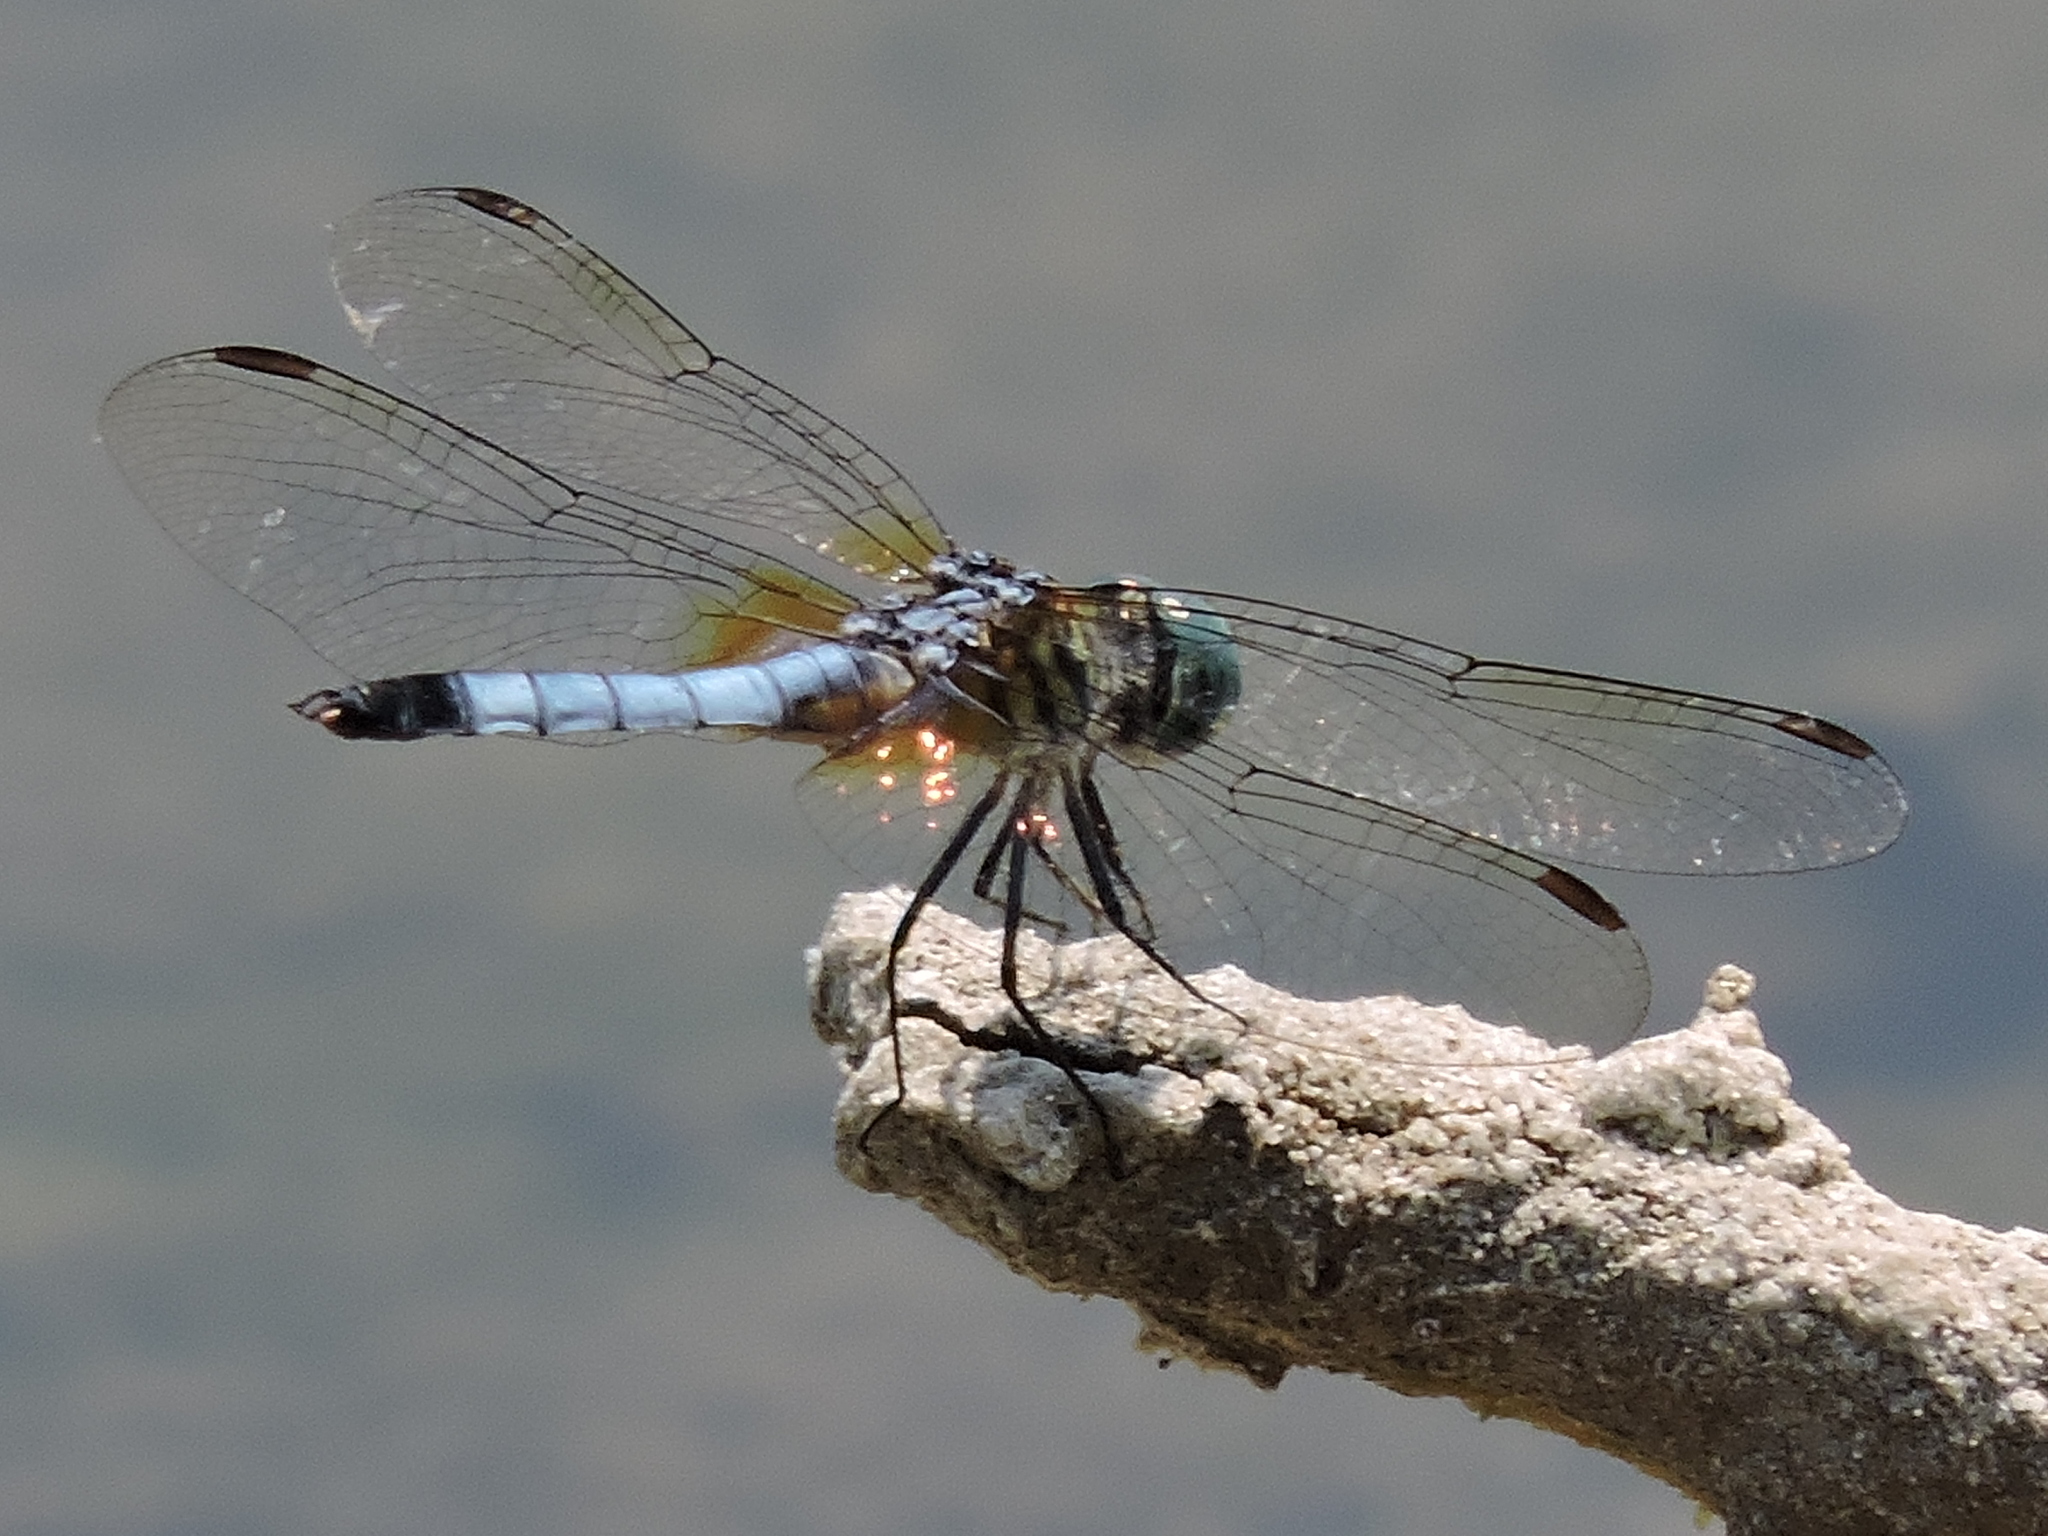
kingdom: Animalia
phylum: Arthropoda
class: Insecta
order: Odonata
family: Libellulidae
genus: Pachydiplax
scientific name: Pachydiplax longipennis
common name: Blue dasher
